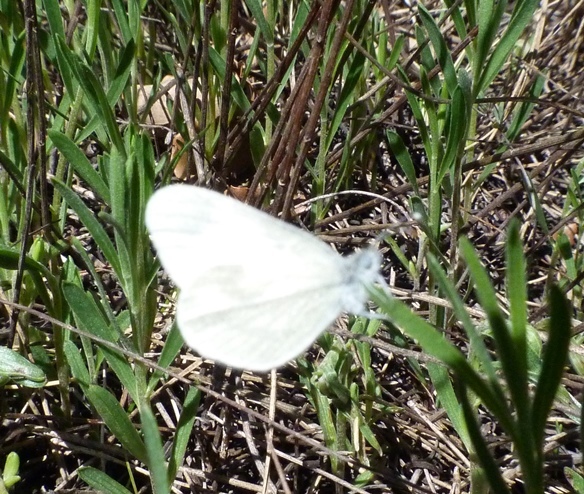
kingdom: Animalia
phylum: Arthropoda
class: Insecta
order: Lepidoptera
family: Pieridae
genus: Leptidea
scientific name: Leptidea sinapis
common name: Wood white
